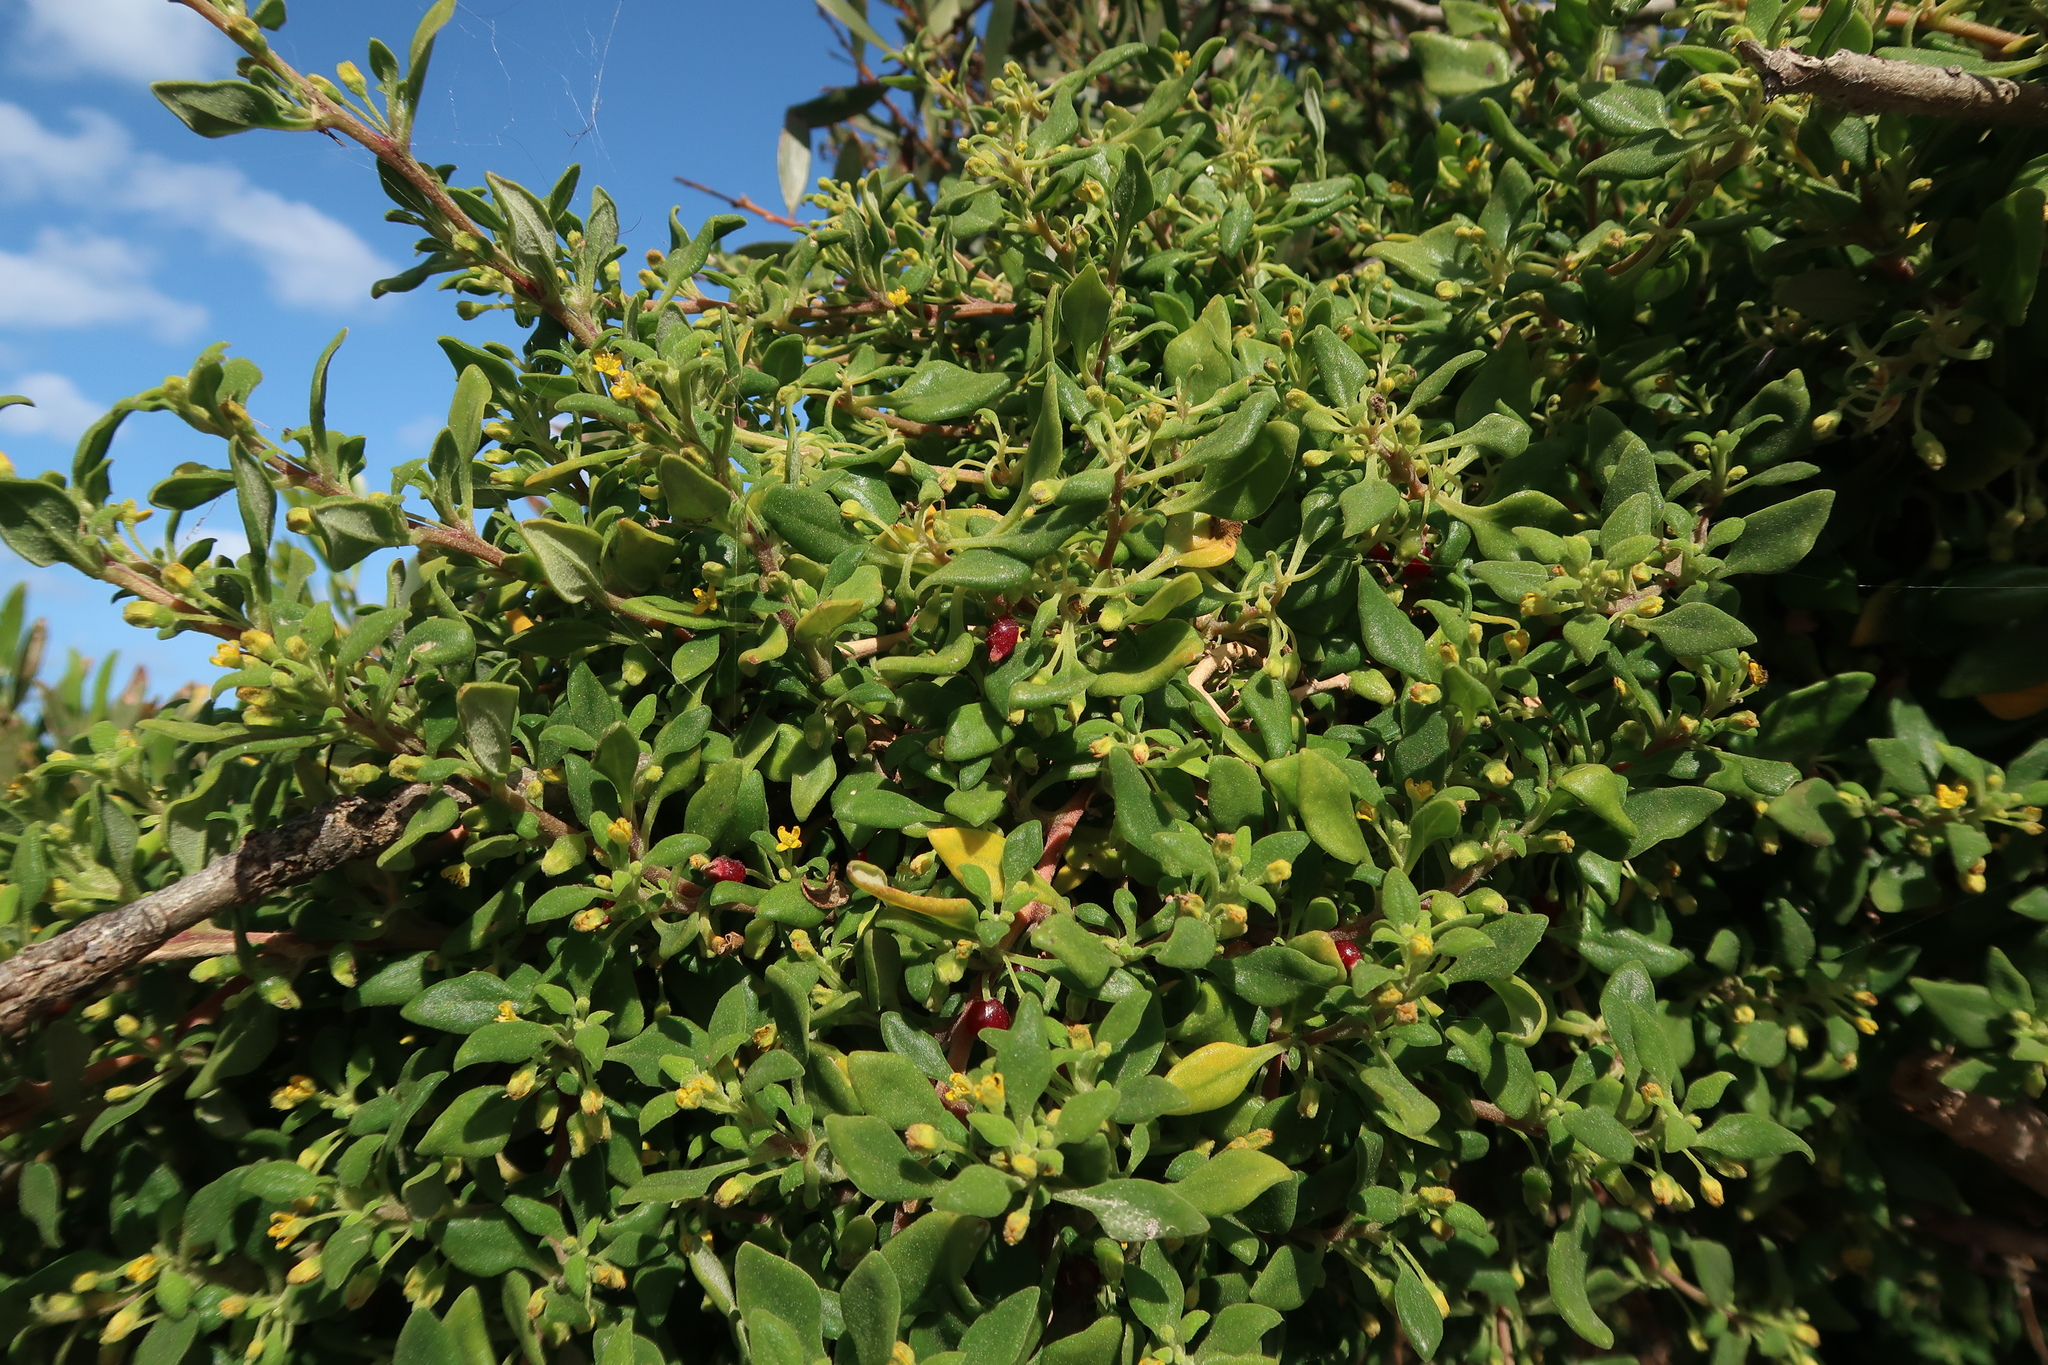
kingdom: Plantae
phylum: Tracheophyta
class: Magnoliopsida
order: Caryophyllales
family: Aizoaceae
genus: Tetragonia
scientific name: Tetragonia implexicoma
